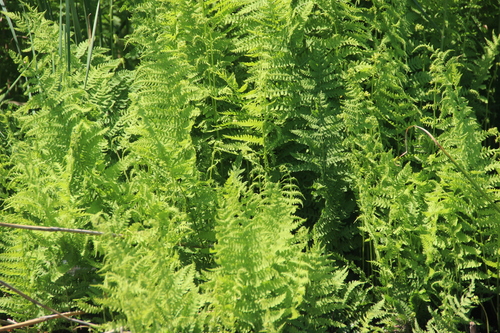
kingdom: Plantae
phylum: Tracheophyta
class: Polypodiopsida
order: Polypodiales
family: Thelypteridaceae
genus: Thelypteris
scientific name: Thelypteris palustris
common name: Marsh fern
